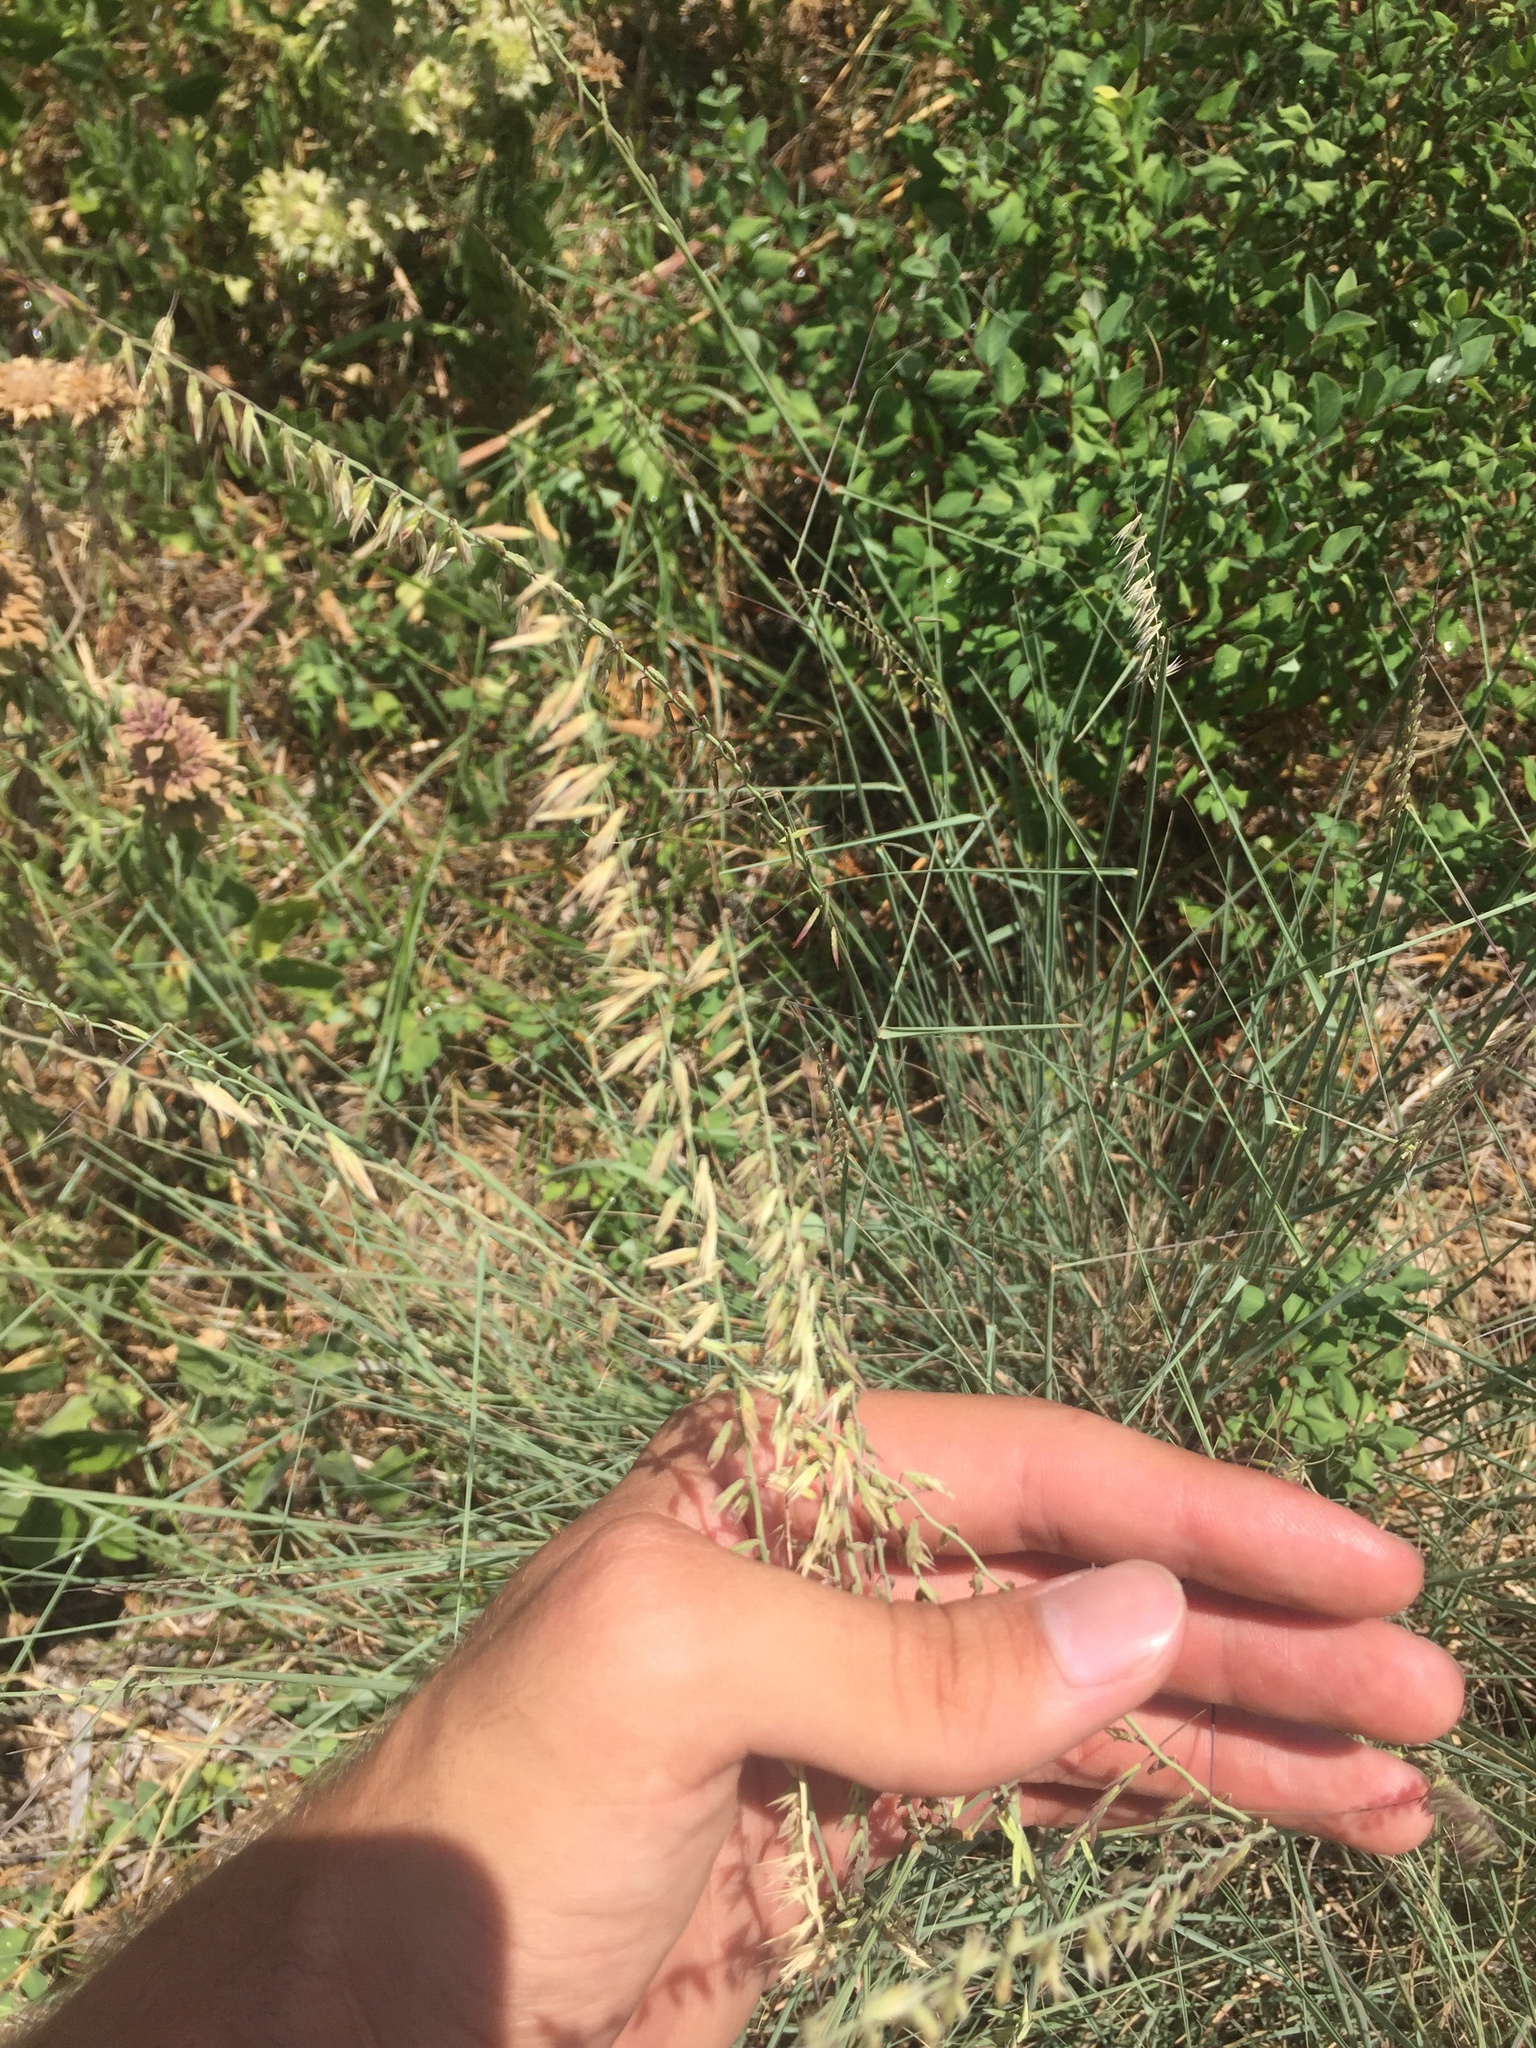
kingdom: Plantae
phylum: Tracheophyta
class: Liliopsida
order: Poales
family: Poaceae
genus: Bouteloua
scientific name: Bouteloua curtipendula
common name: Side-oats grama
